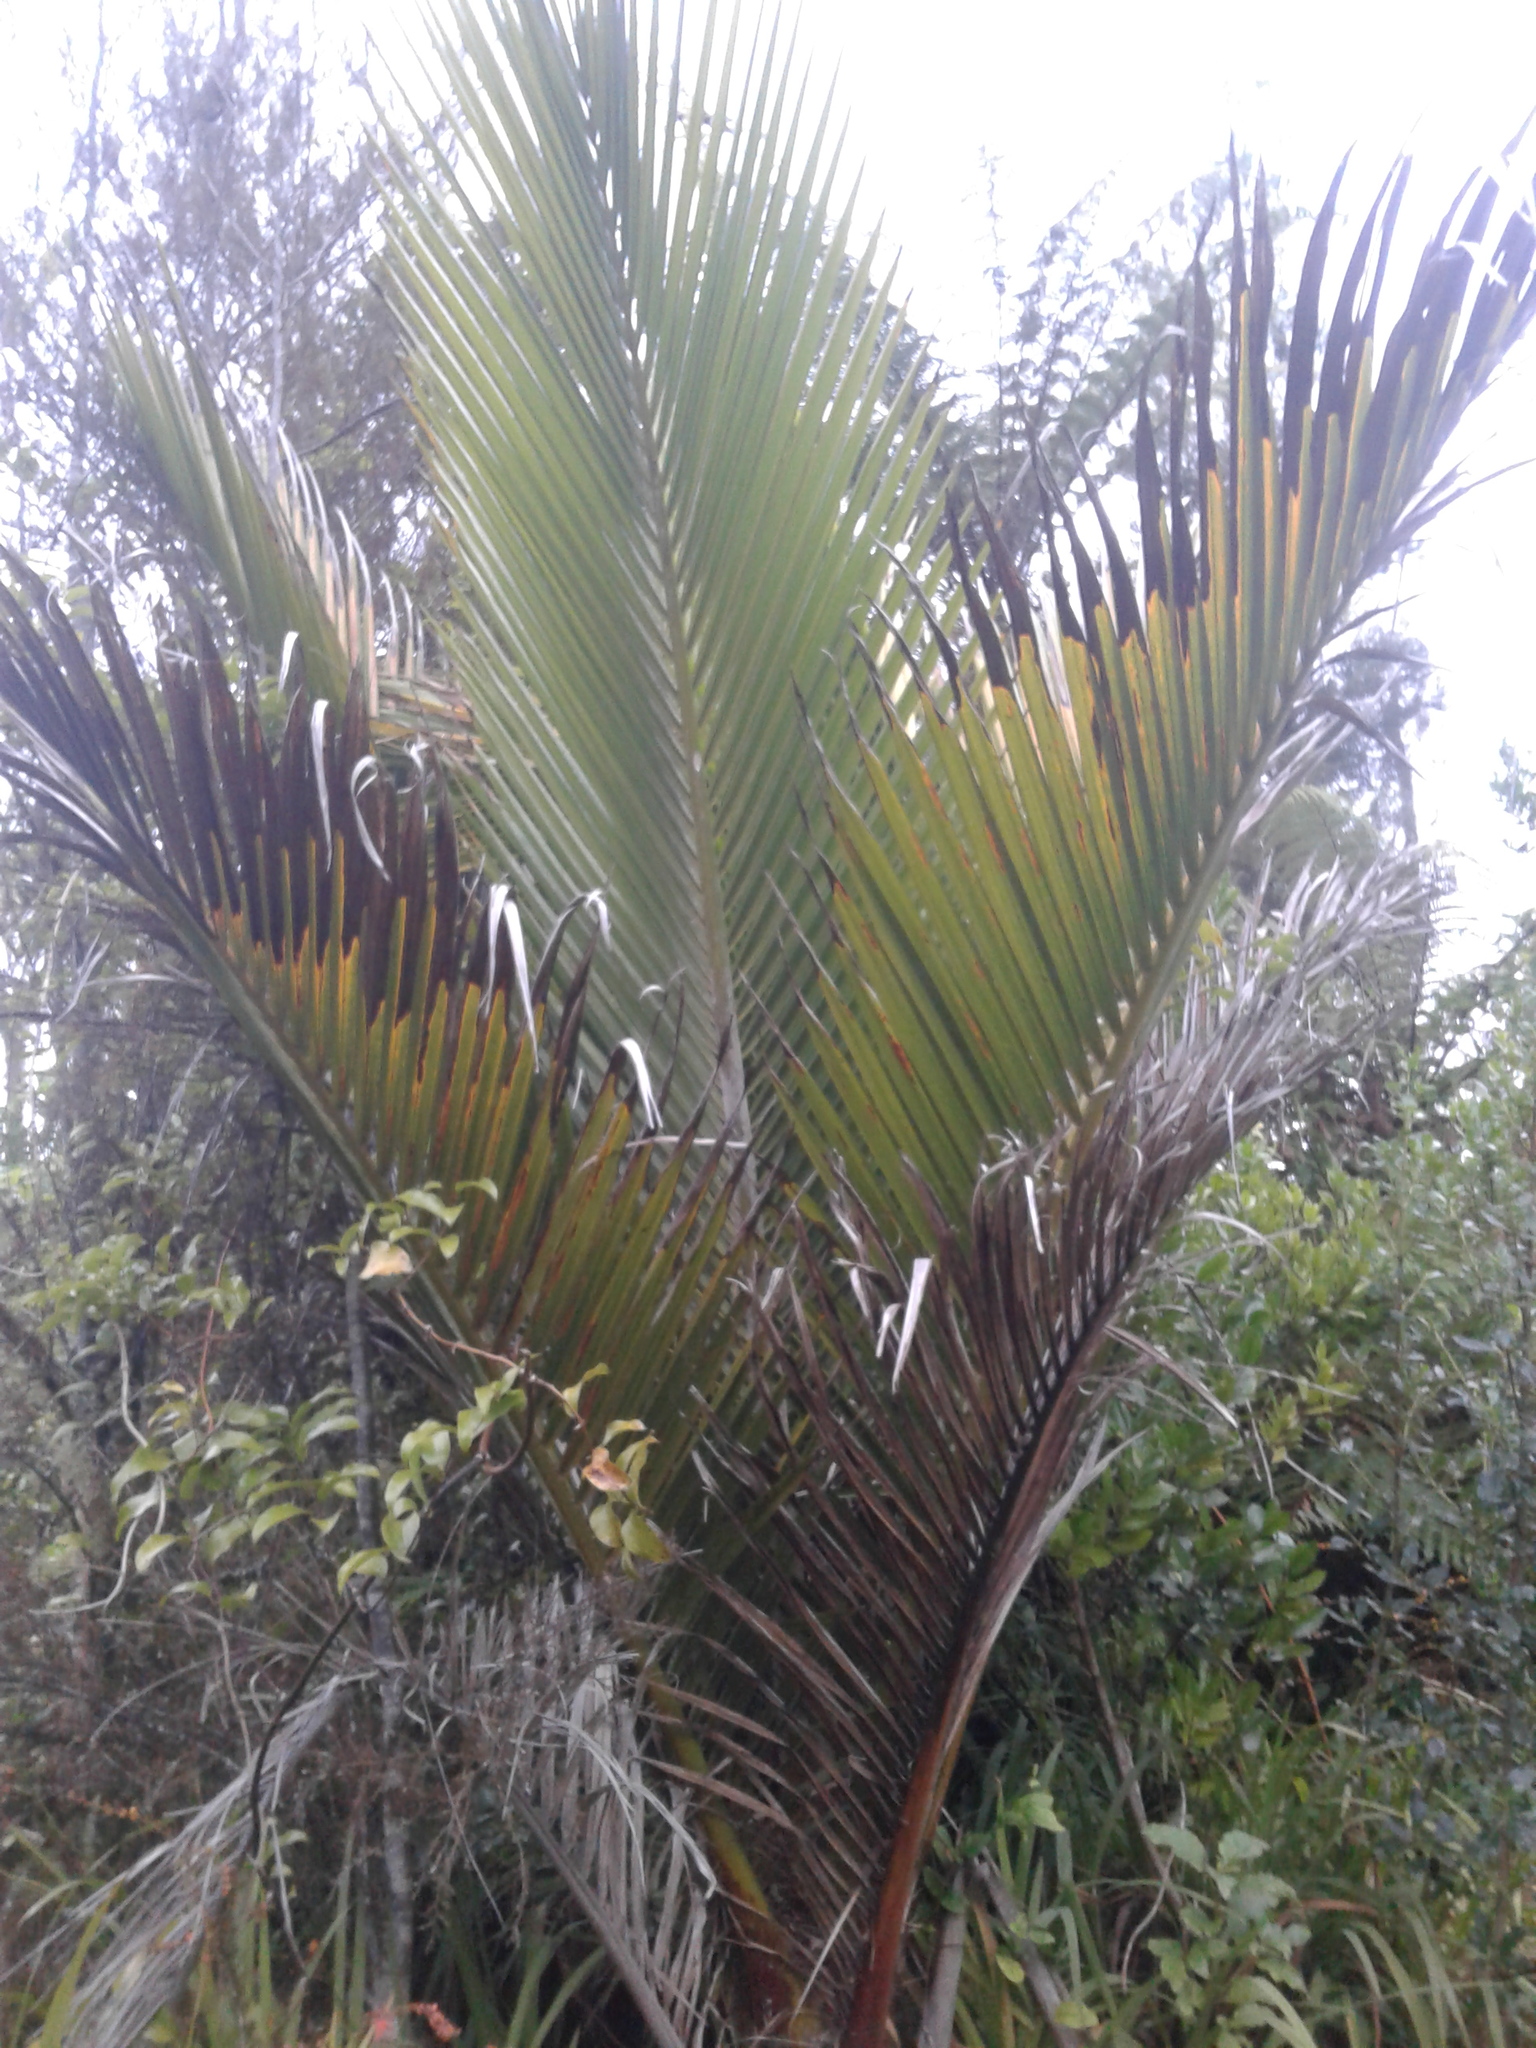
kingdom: Plantae
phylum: Tracheophyta
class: Liliopsida
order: Arecales
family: Arecaceae
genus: Rhopalostylis
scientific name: Rhopalostylis sapida
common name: Feather-duster palm
